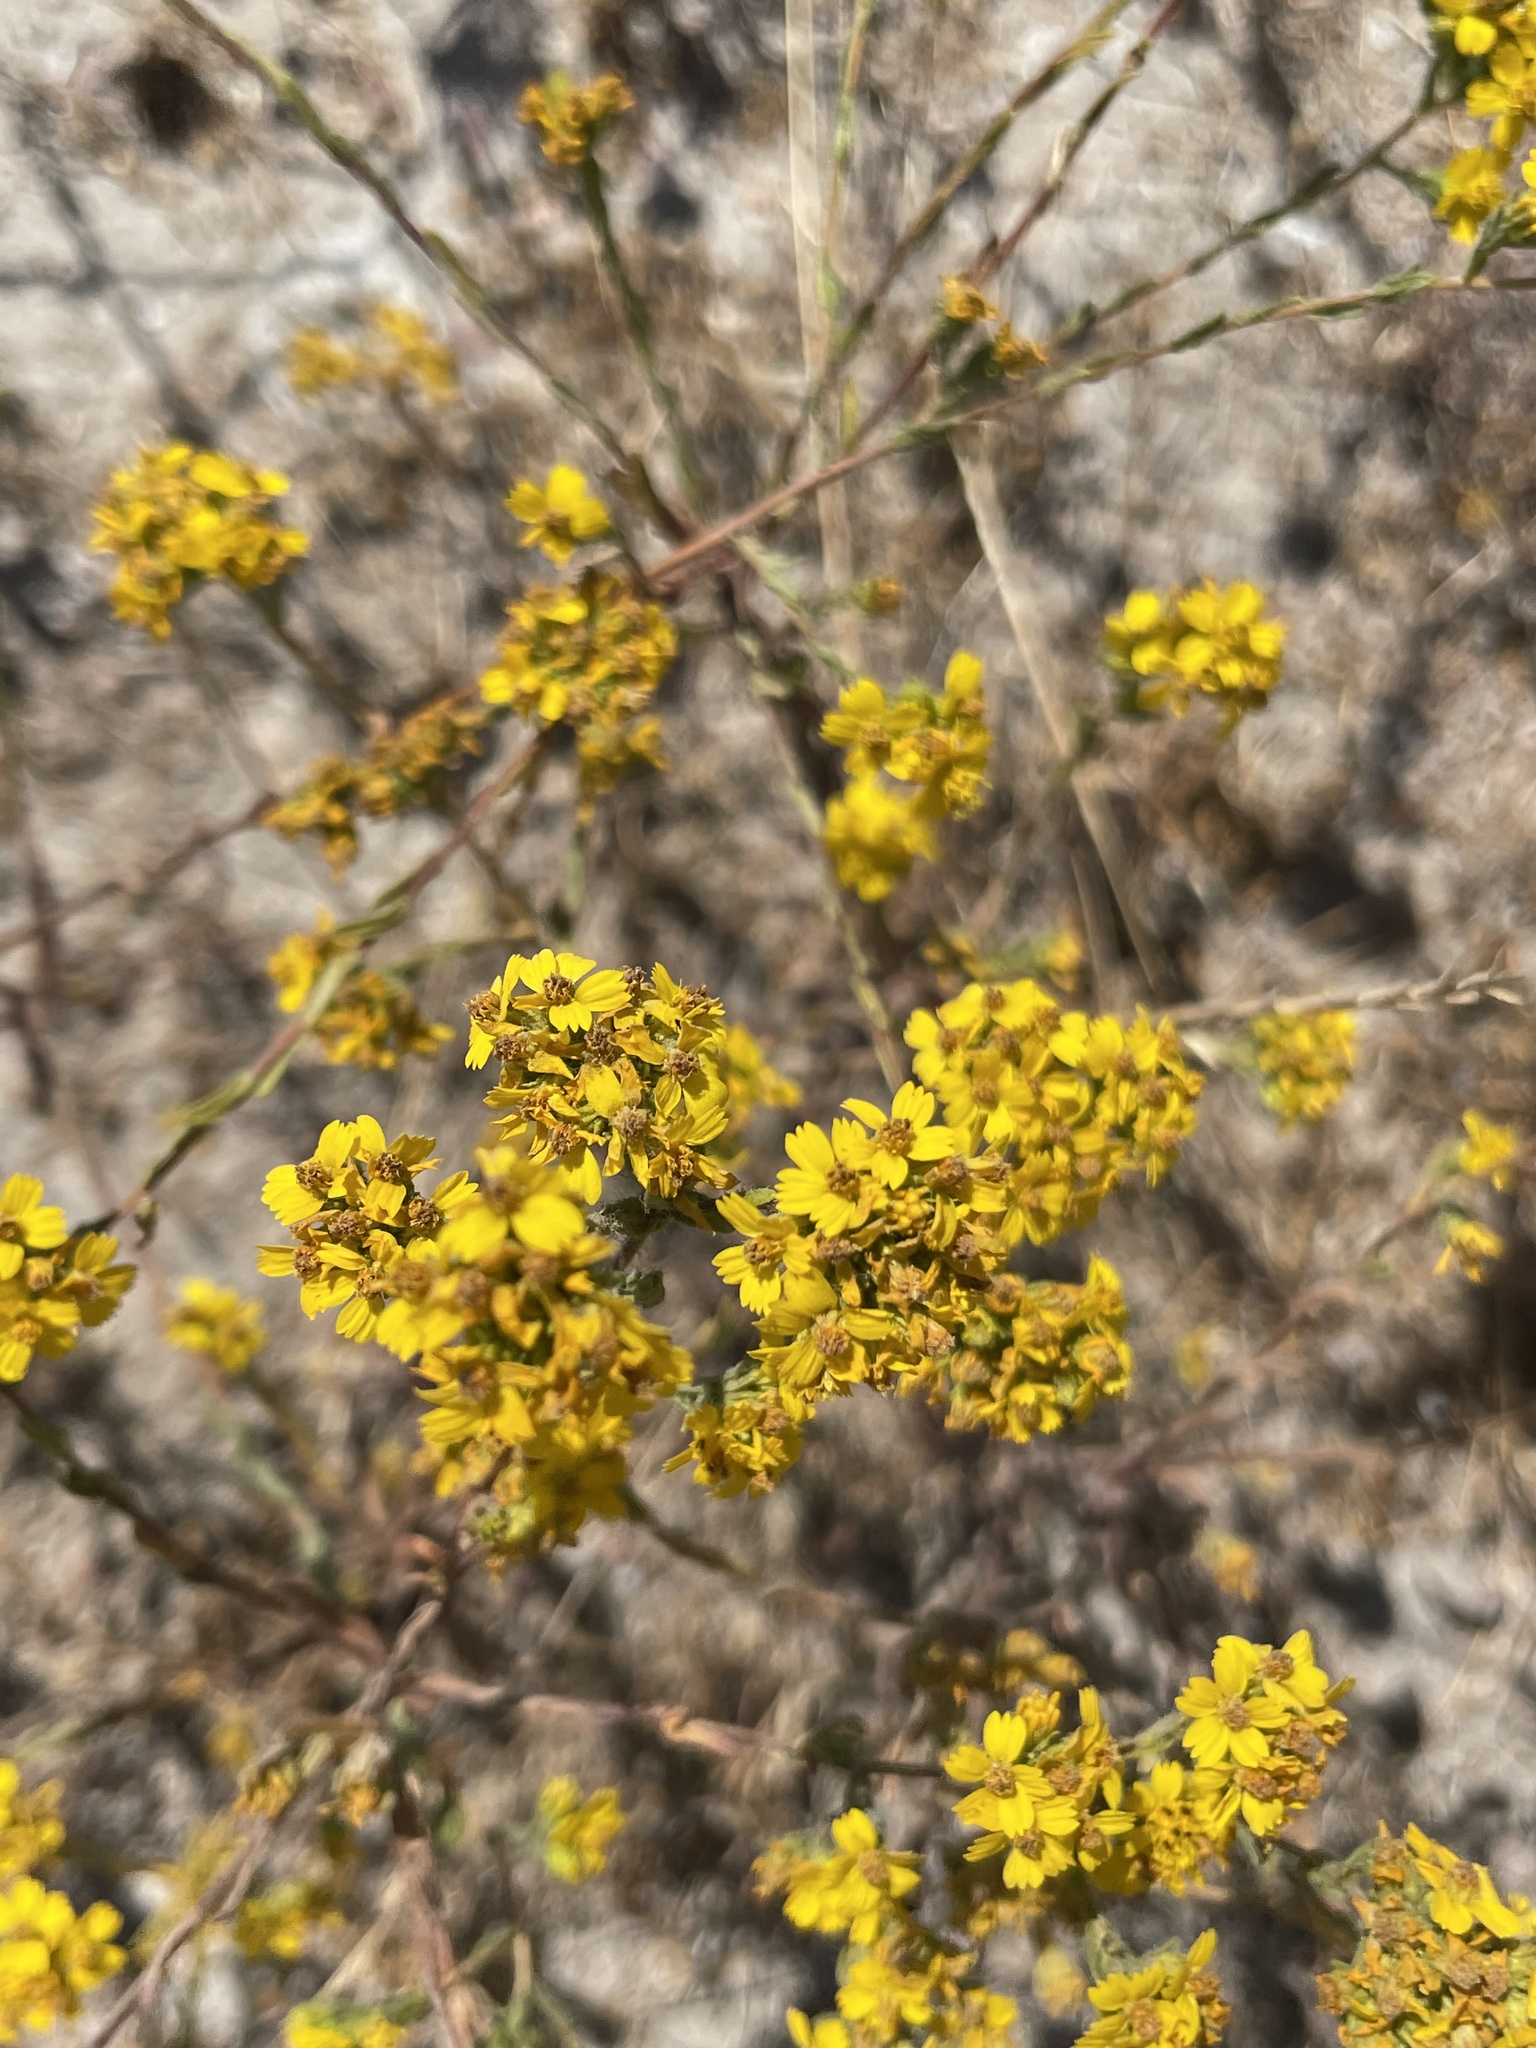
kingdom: Plantae
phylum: Tracheophyta
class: Magnoliopsida
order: Asterales
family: Asteraceae
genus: Deinandra
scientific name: Deinandra fasciculata
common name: Clustered tarweed
